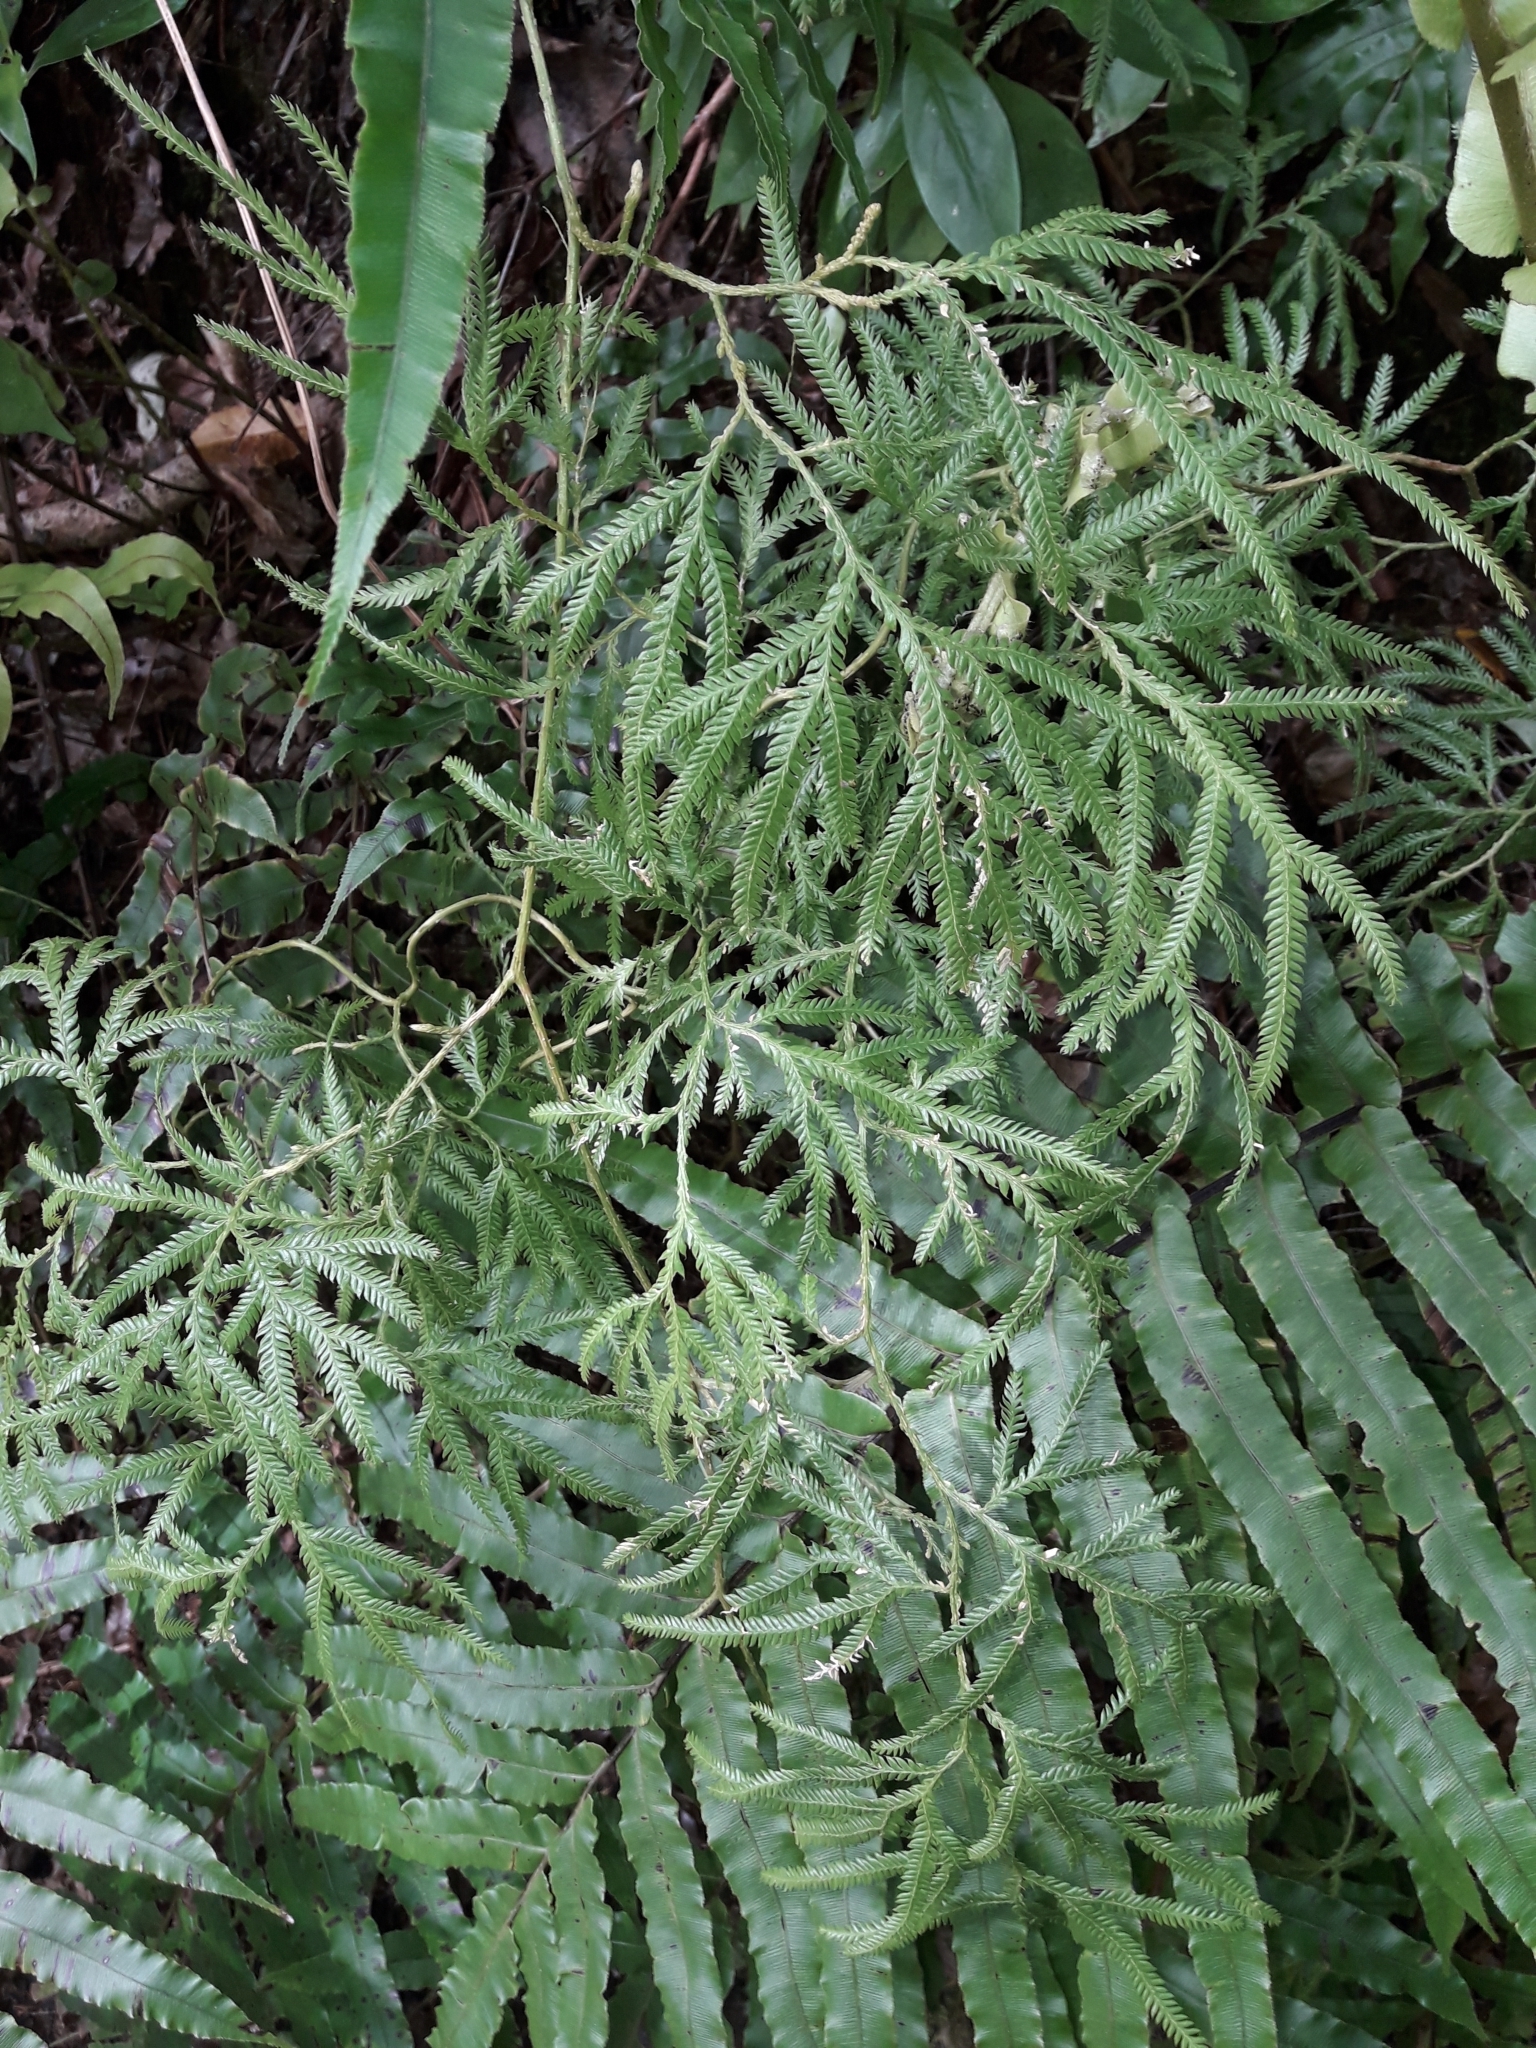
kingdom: Plantae
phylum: Tracheophyta
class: Lycopodiopsida
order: Lycopodiales
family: Lycopodiaceae
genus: Lycopodium
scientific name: Lycopodium volubile
